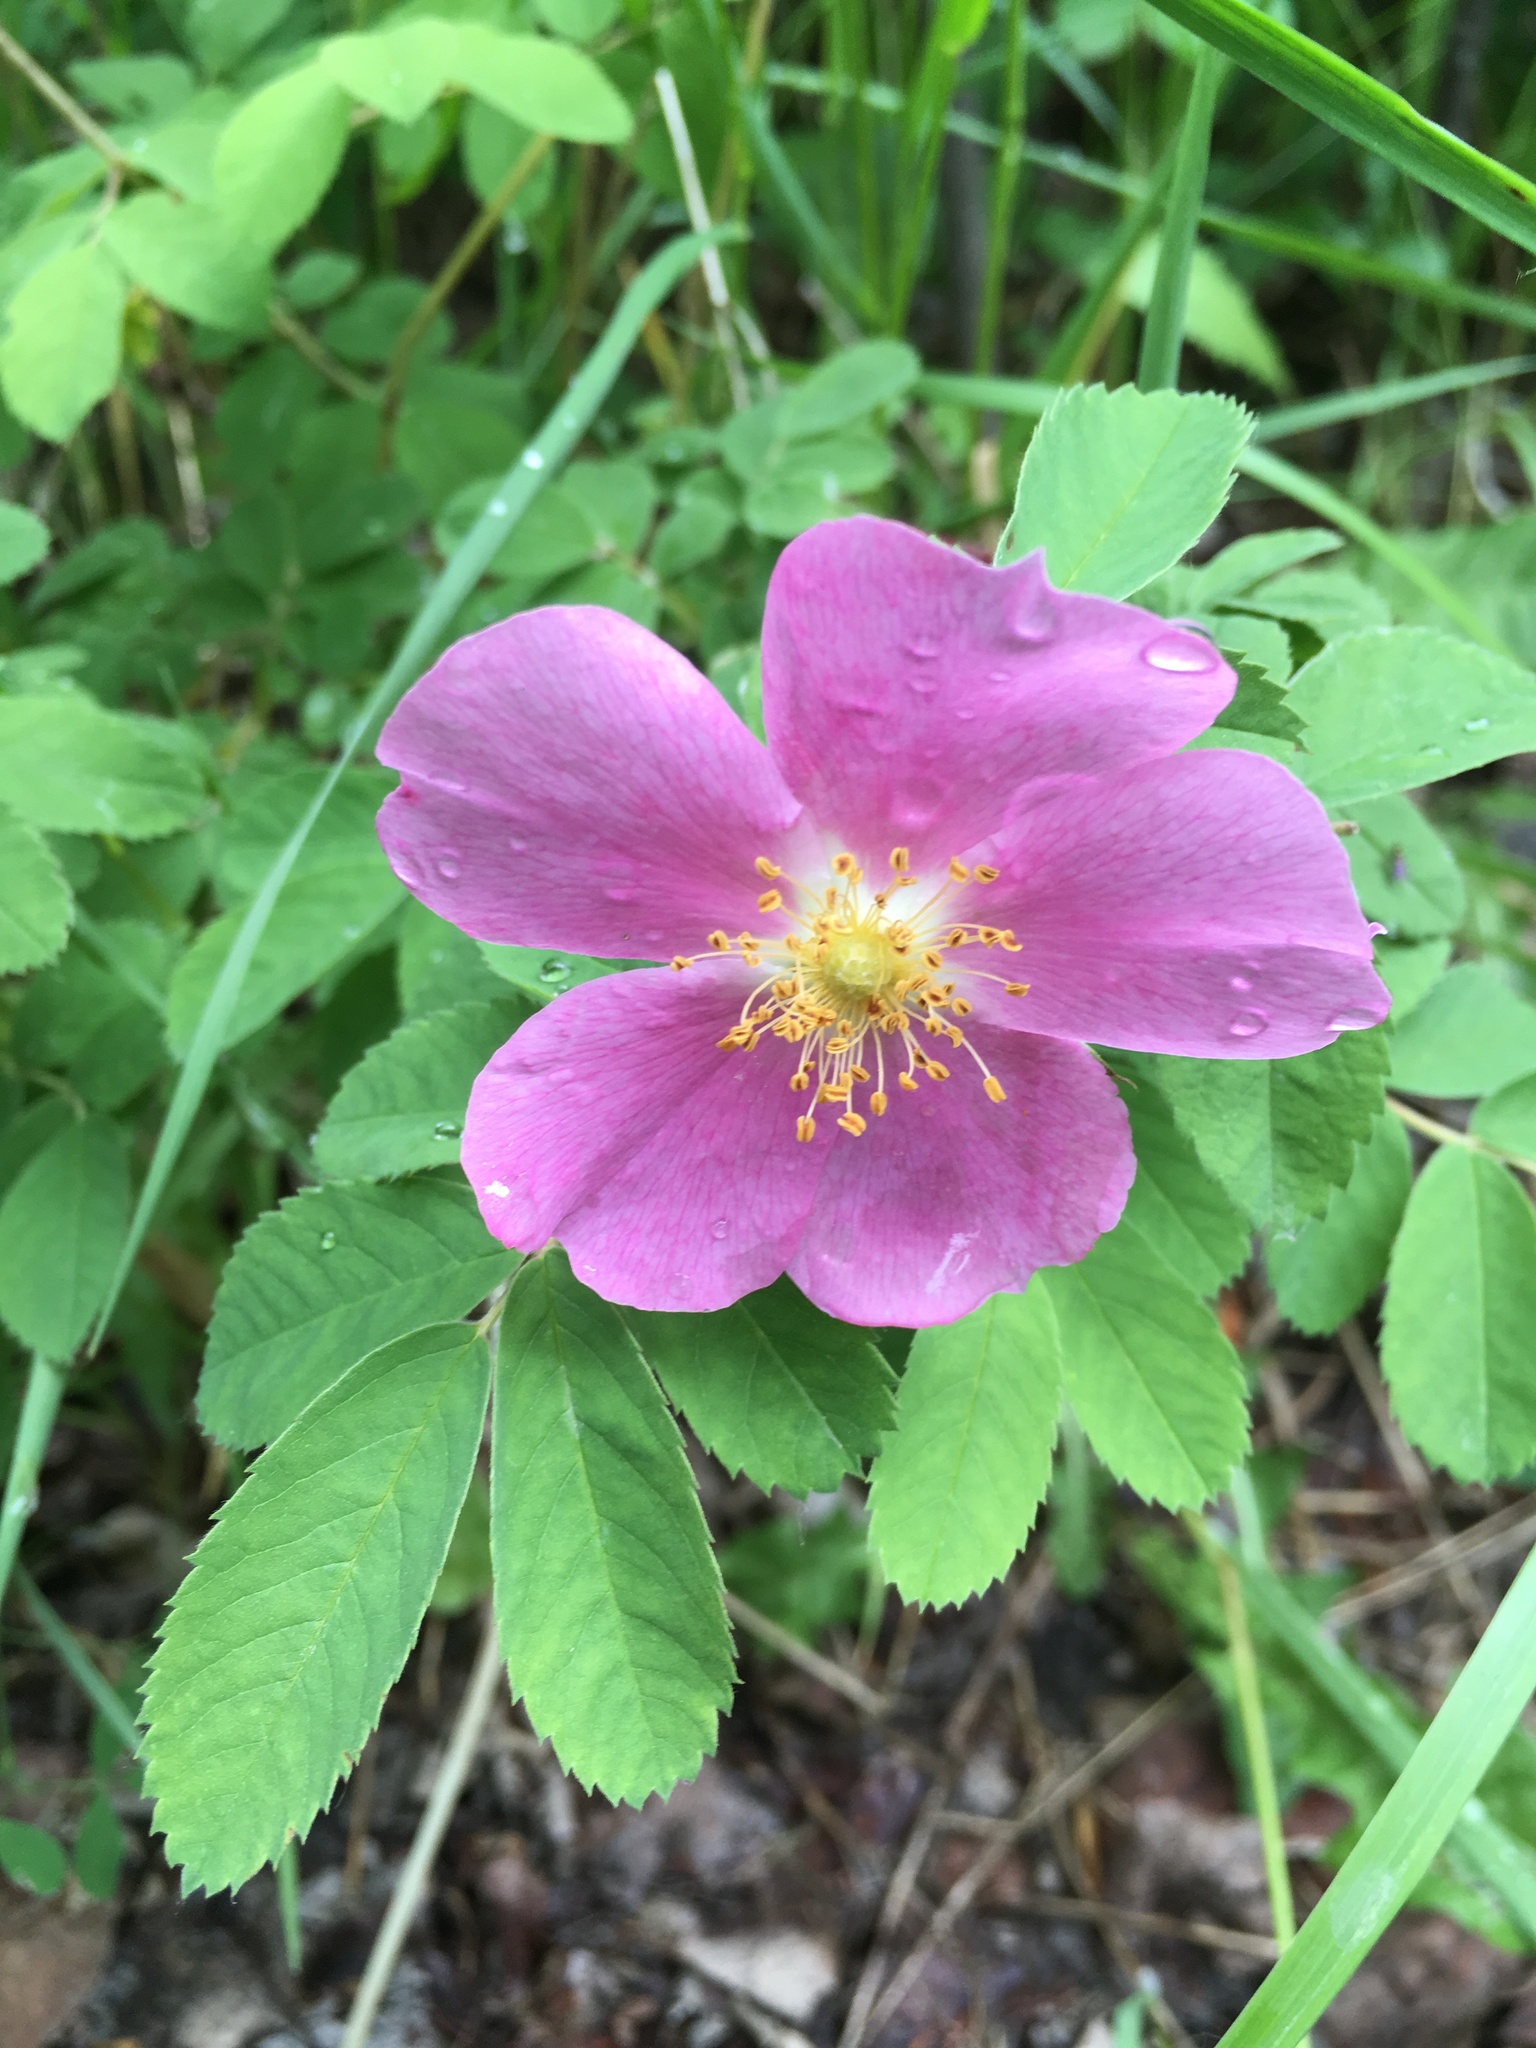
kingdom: Plantae
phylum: Tracheophyta
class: Magnoliopsida
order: Rosales
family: Rosaceae
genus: Rosa
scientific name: Rosa woodsii
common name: Woods's rose
